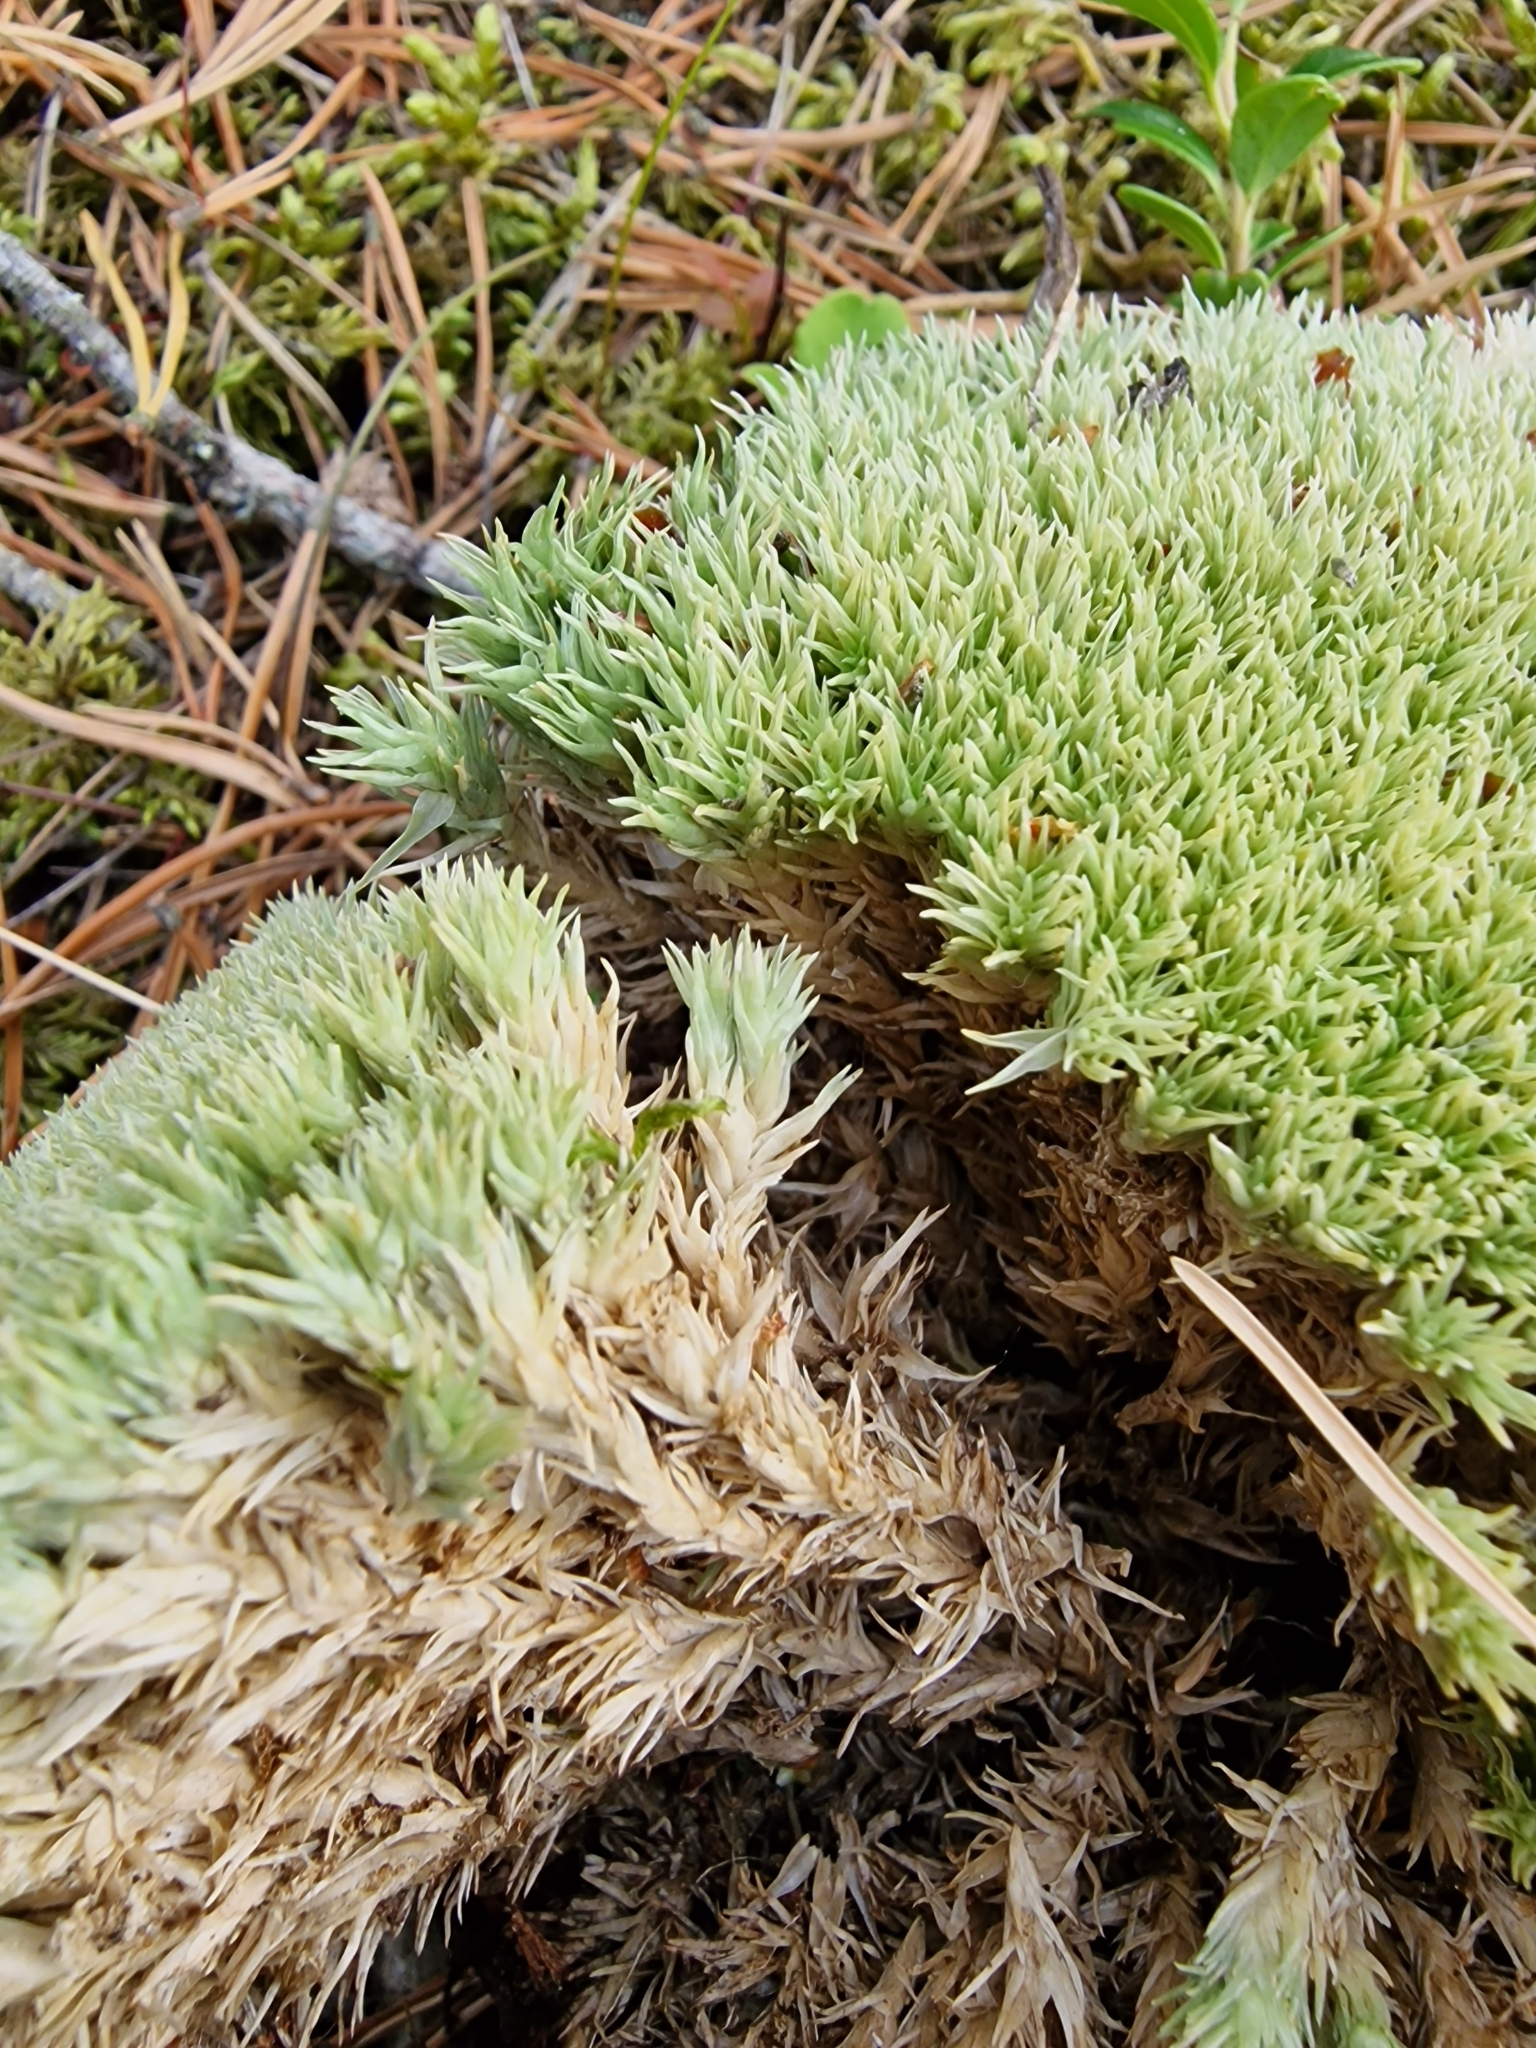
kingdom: Plantae
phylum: Bryophyta
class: Bryopsida
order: Dicranales
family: Leucobryaceae
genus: Leucobryum
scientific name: Leucobryum glaucum
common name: Large white-moss
